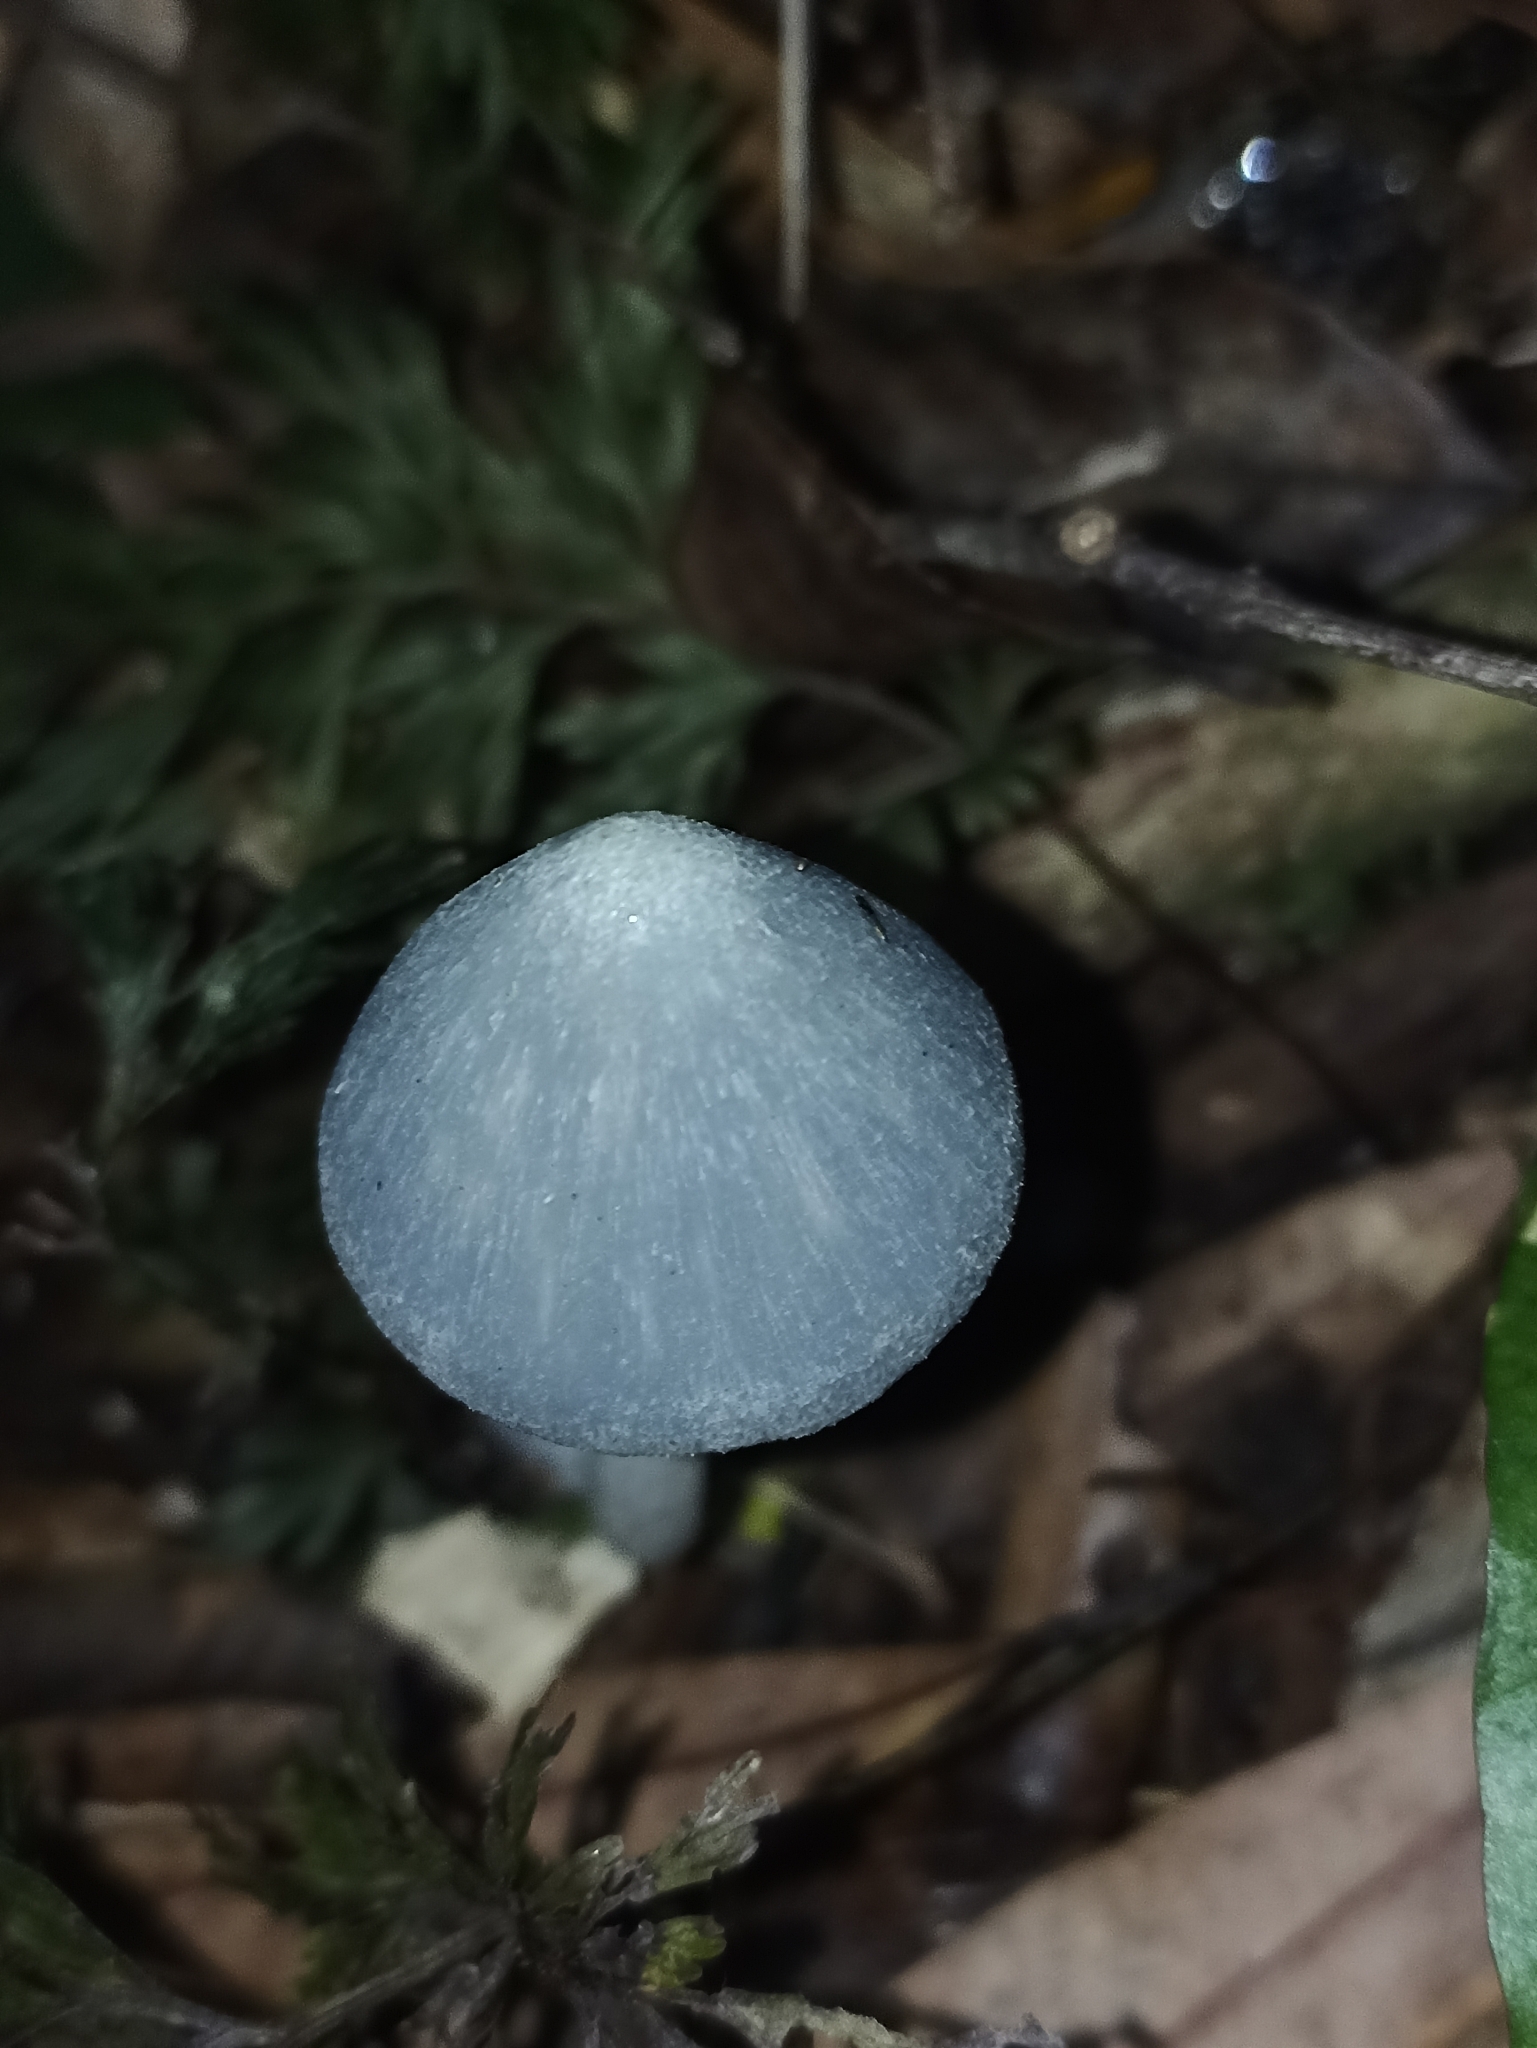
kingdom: Fungi
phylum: Basidiomycota
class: Agaricomycetes
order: Agaricales
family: Entolomataceae
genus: Entoloma
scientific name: Entoloma hochstetteri
